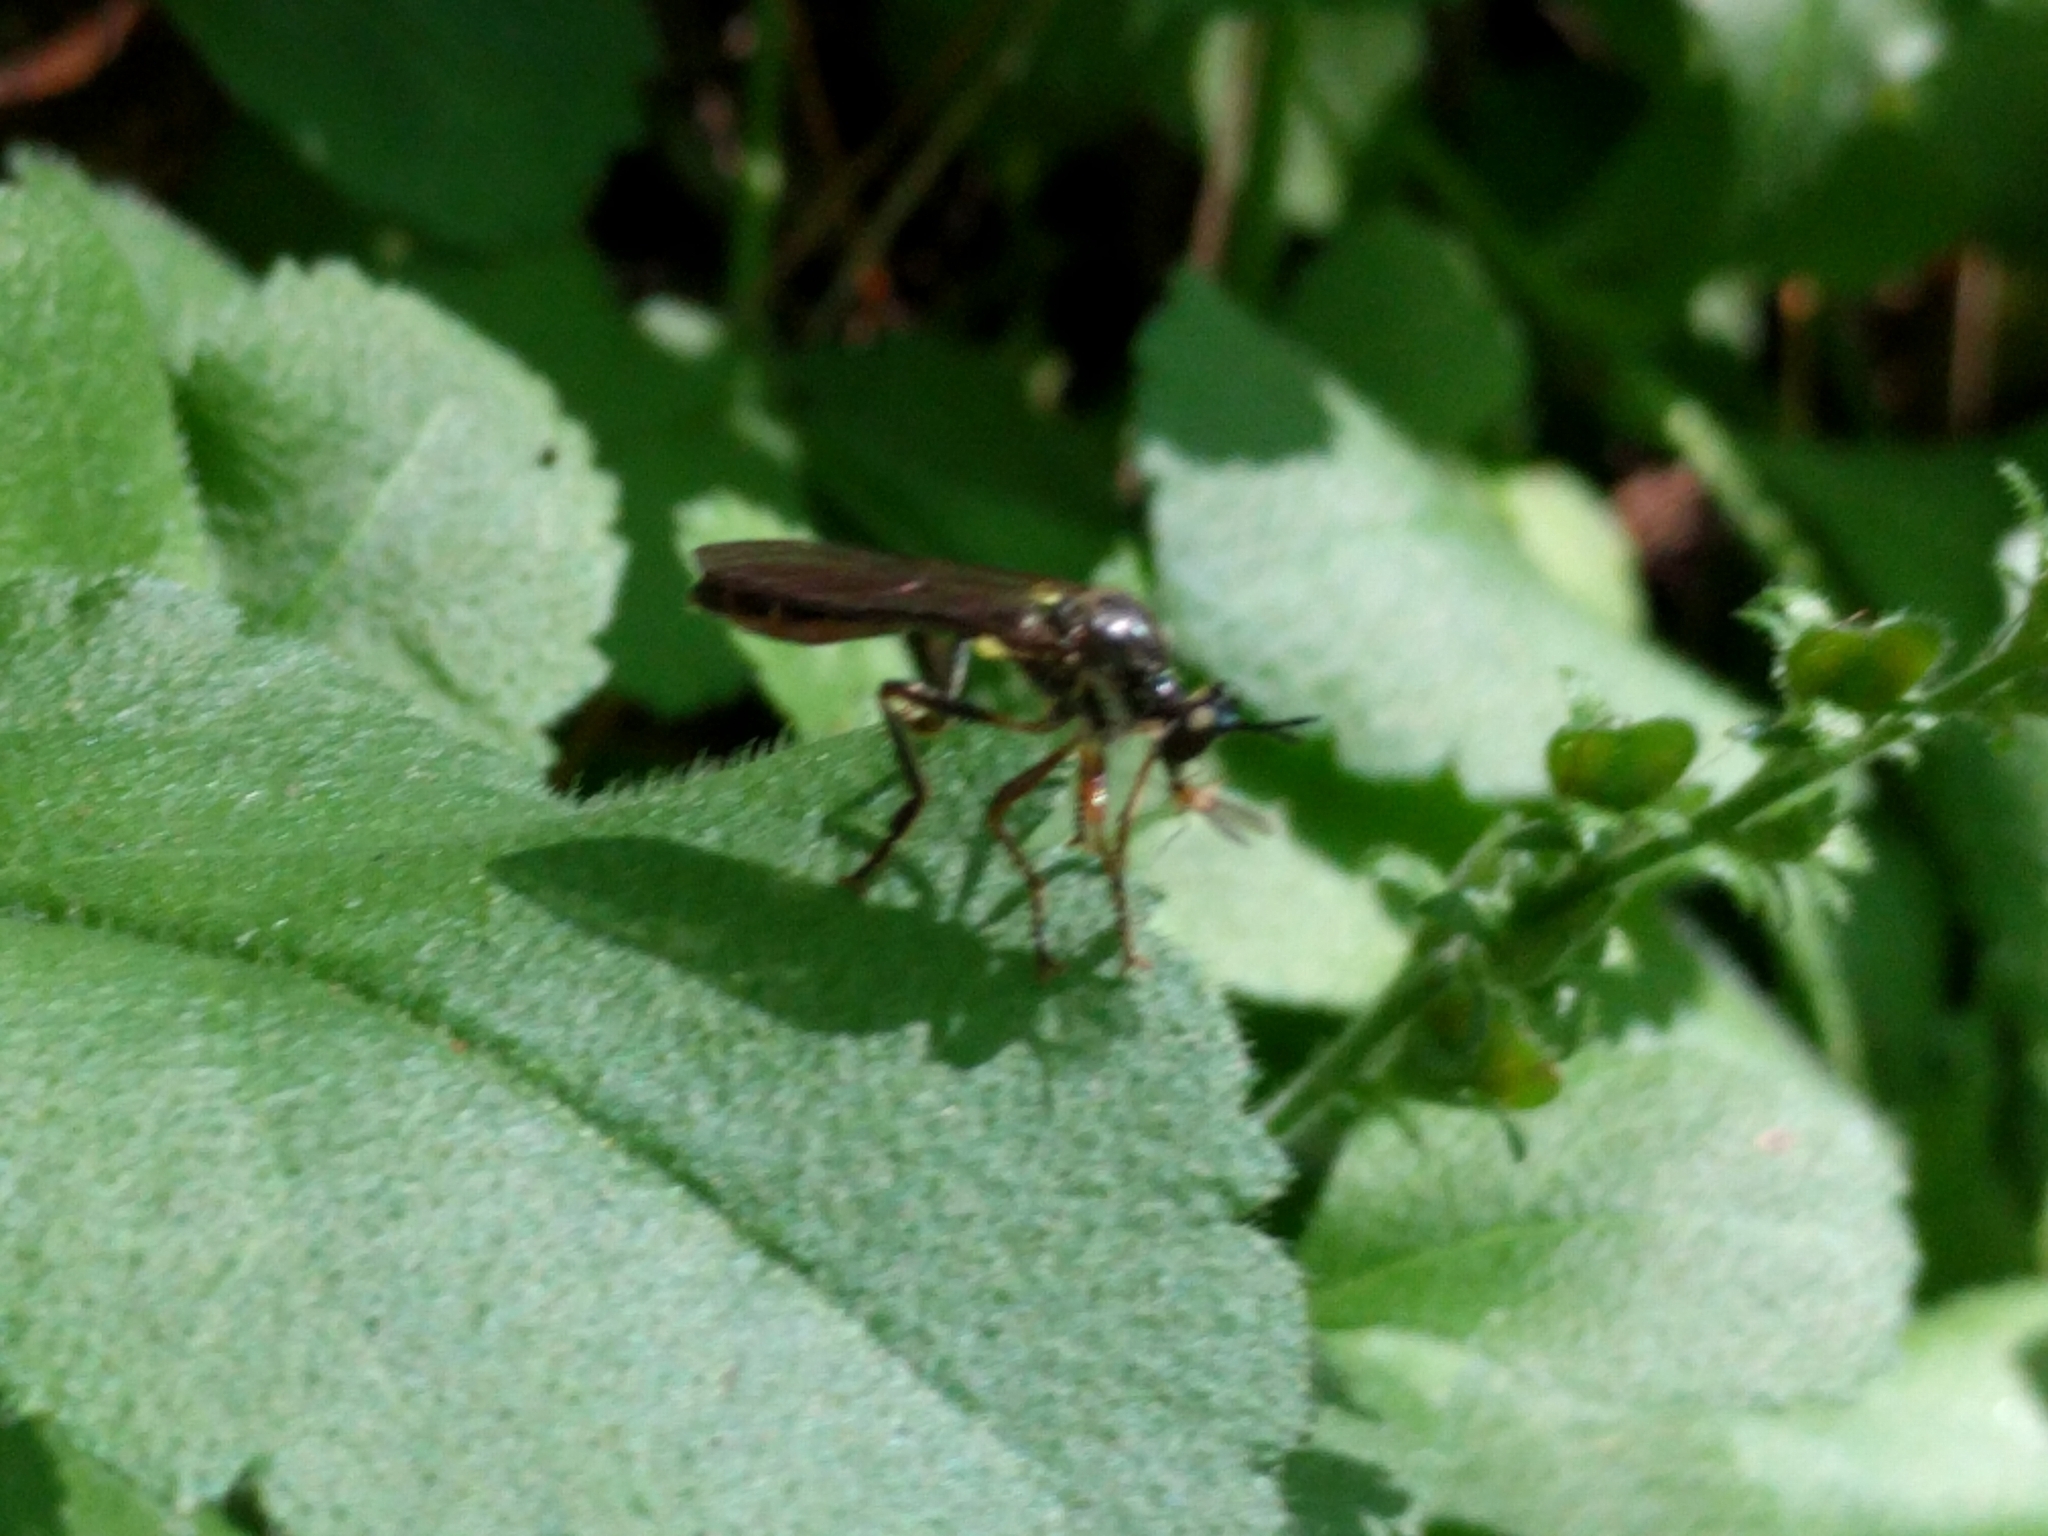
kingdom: Animalia
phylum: Arthropoda
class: Insecta
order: Diptera
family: Asilidae
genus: Dioctria
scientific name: Dioctria hyalipennis
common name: Stripe-legged robberfly
